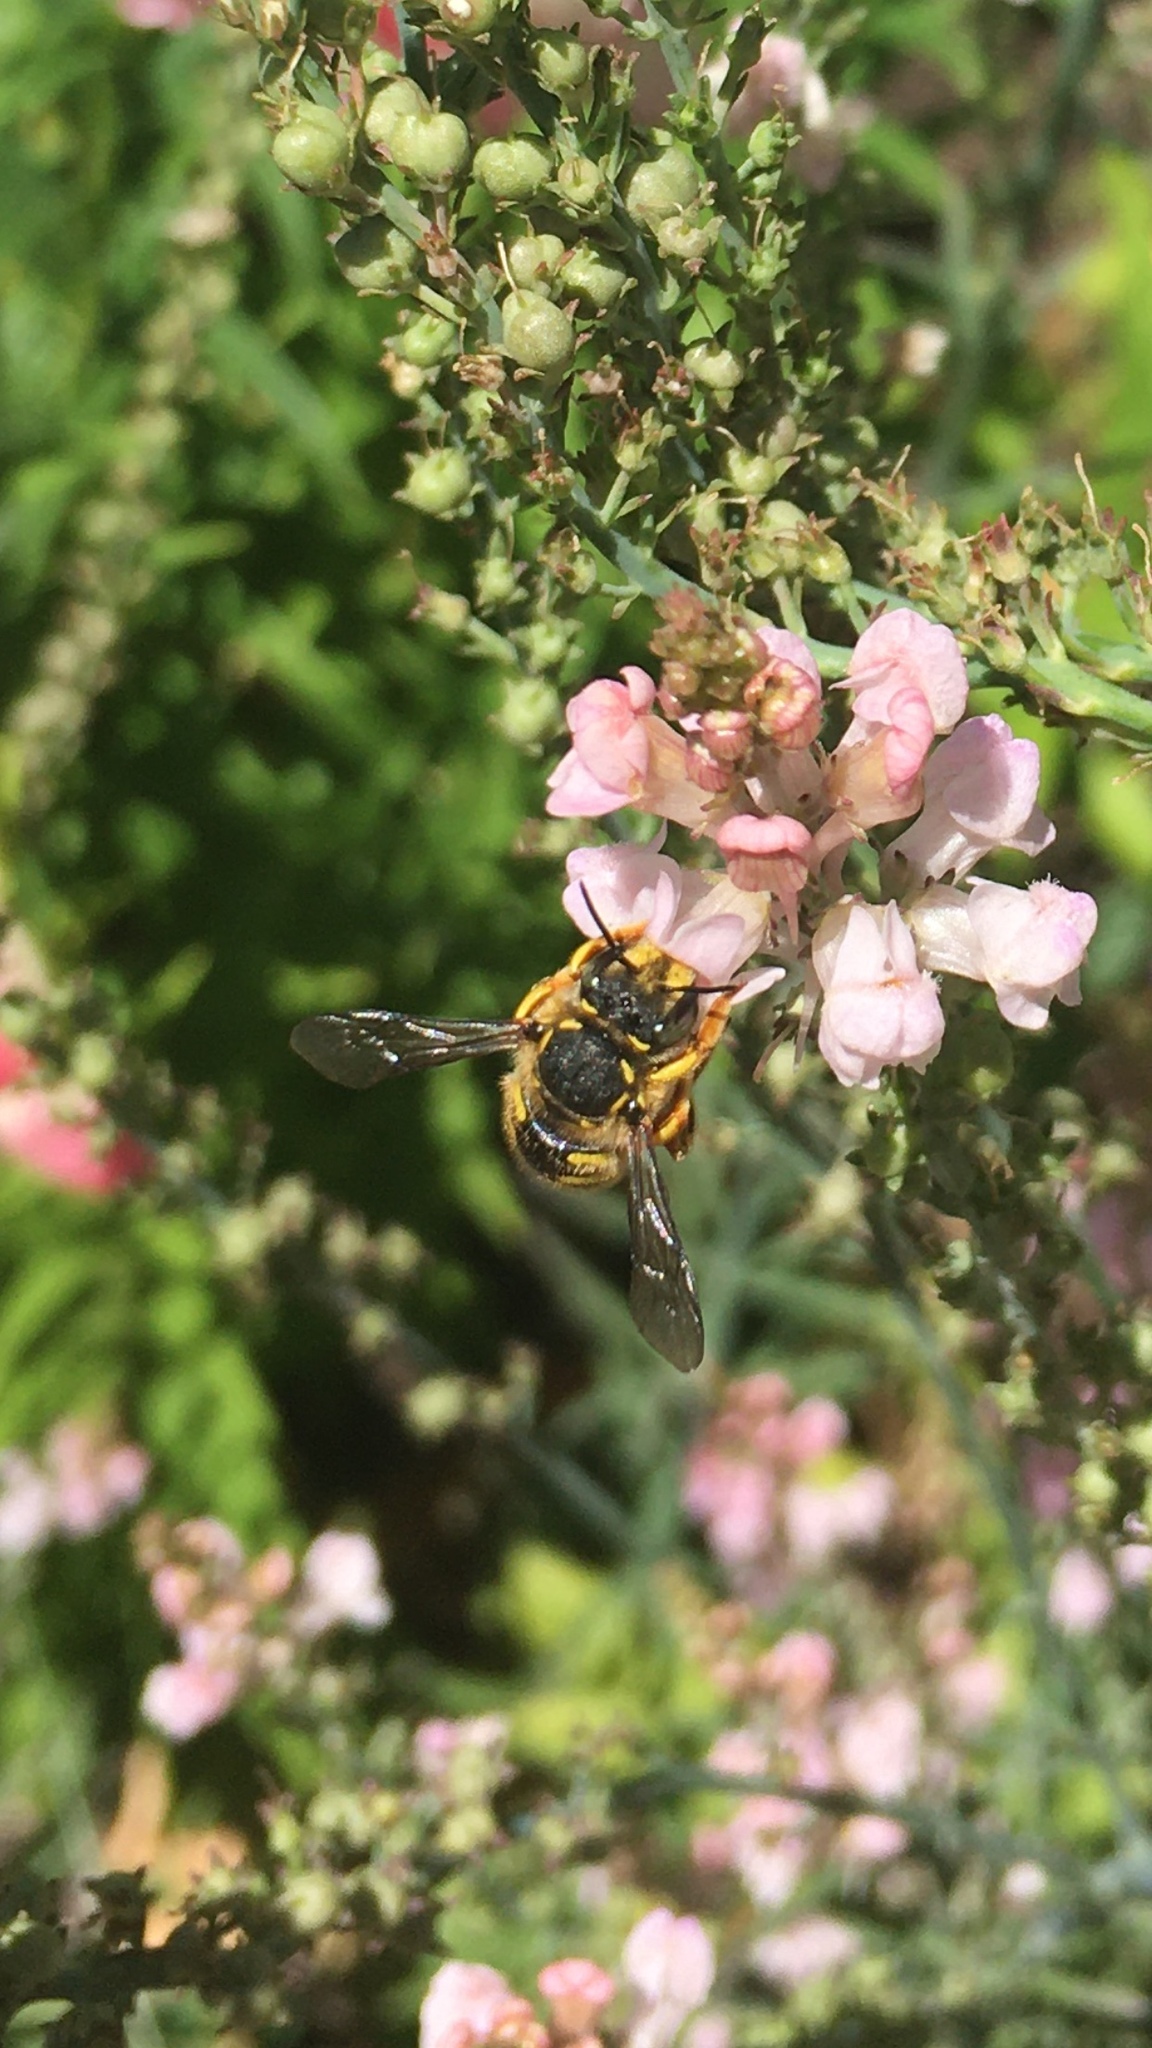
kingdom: Animalia
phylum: Arthropoda
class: Insecta
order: Hymenoptera
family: Megachilidae
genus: Anthidium
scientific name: Anthidium manicatum
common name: Wool carder bee
